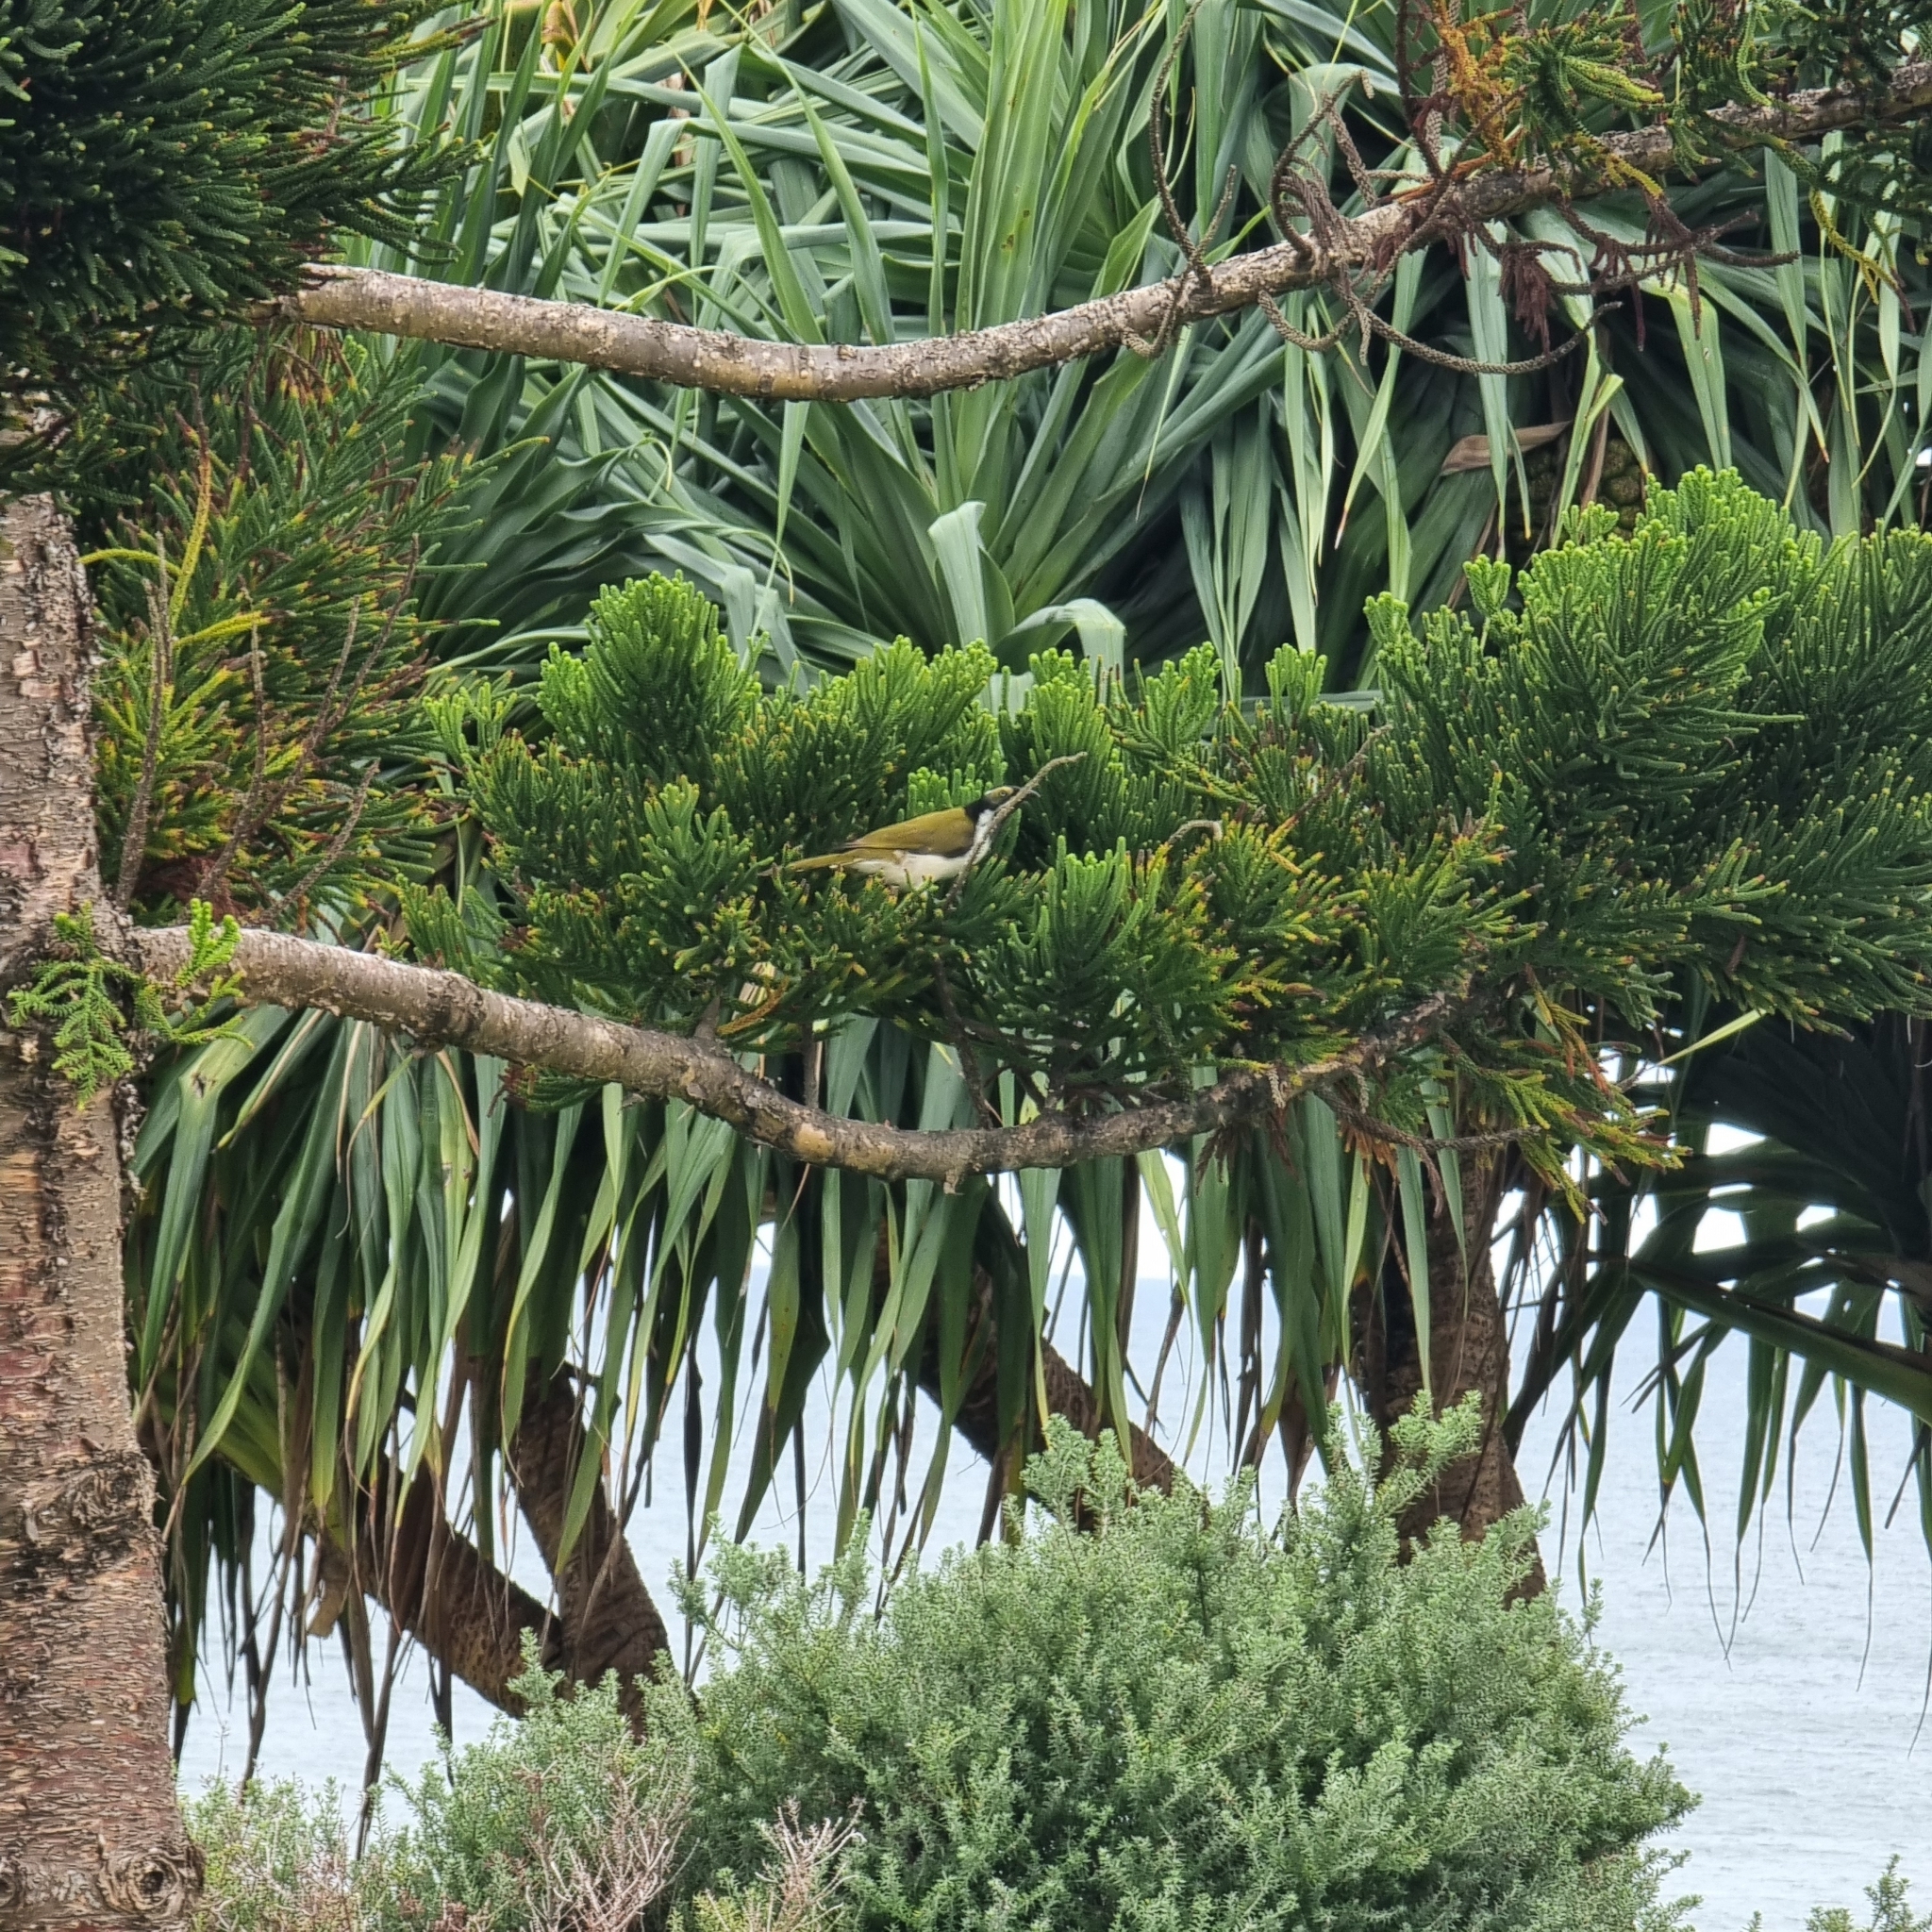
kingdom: Animalia
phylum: Chordata
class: Aves
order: Passeriformes
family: Meliphagidae
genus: Entomyzon
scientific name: Entomyzon cyanotis
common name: Blue-faced honeyeater
